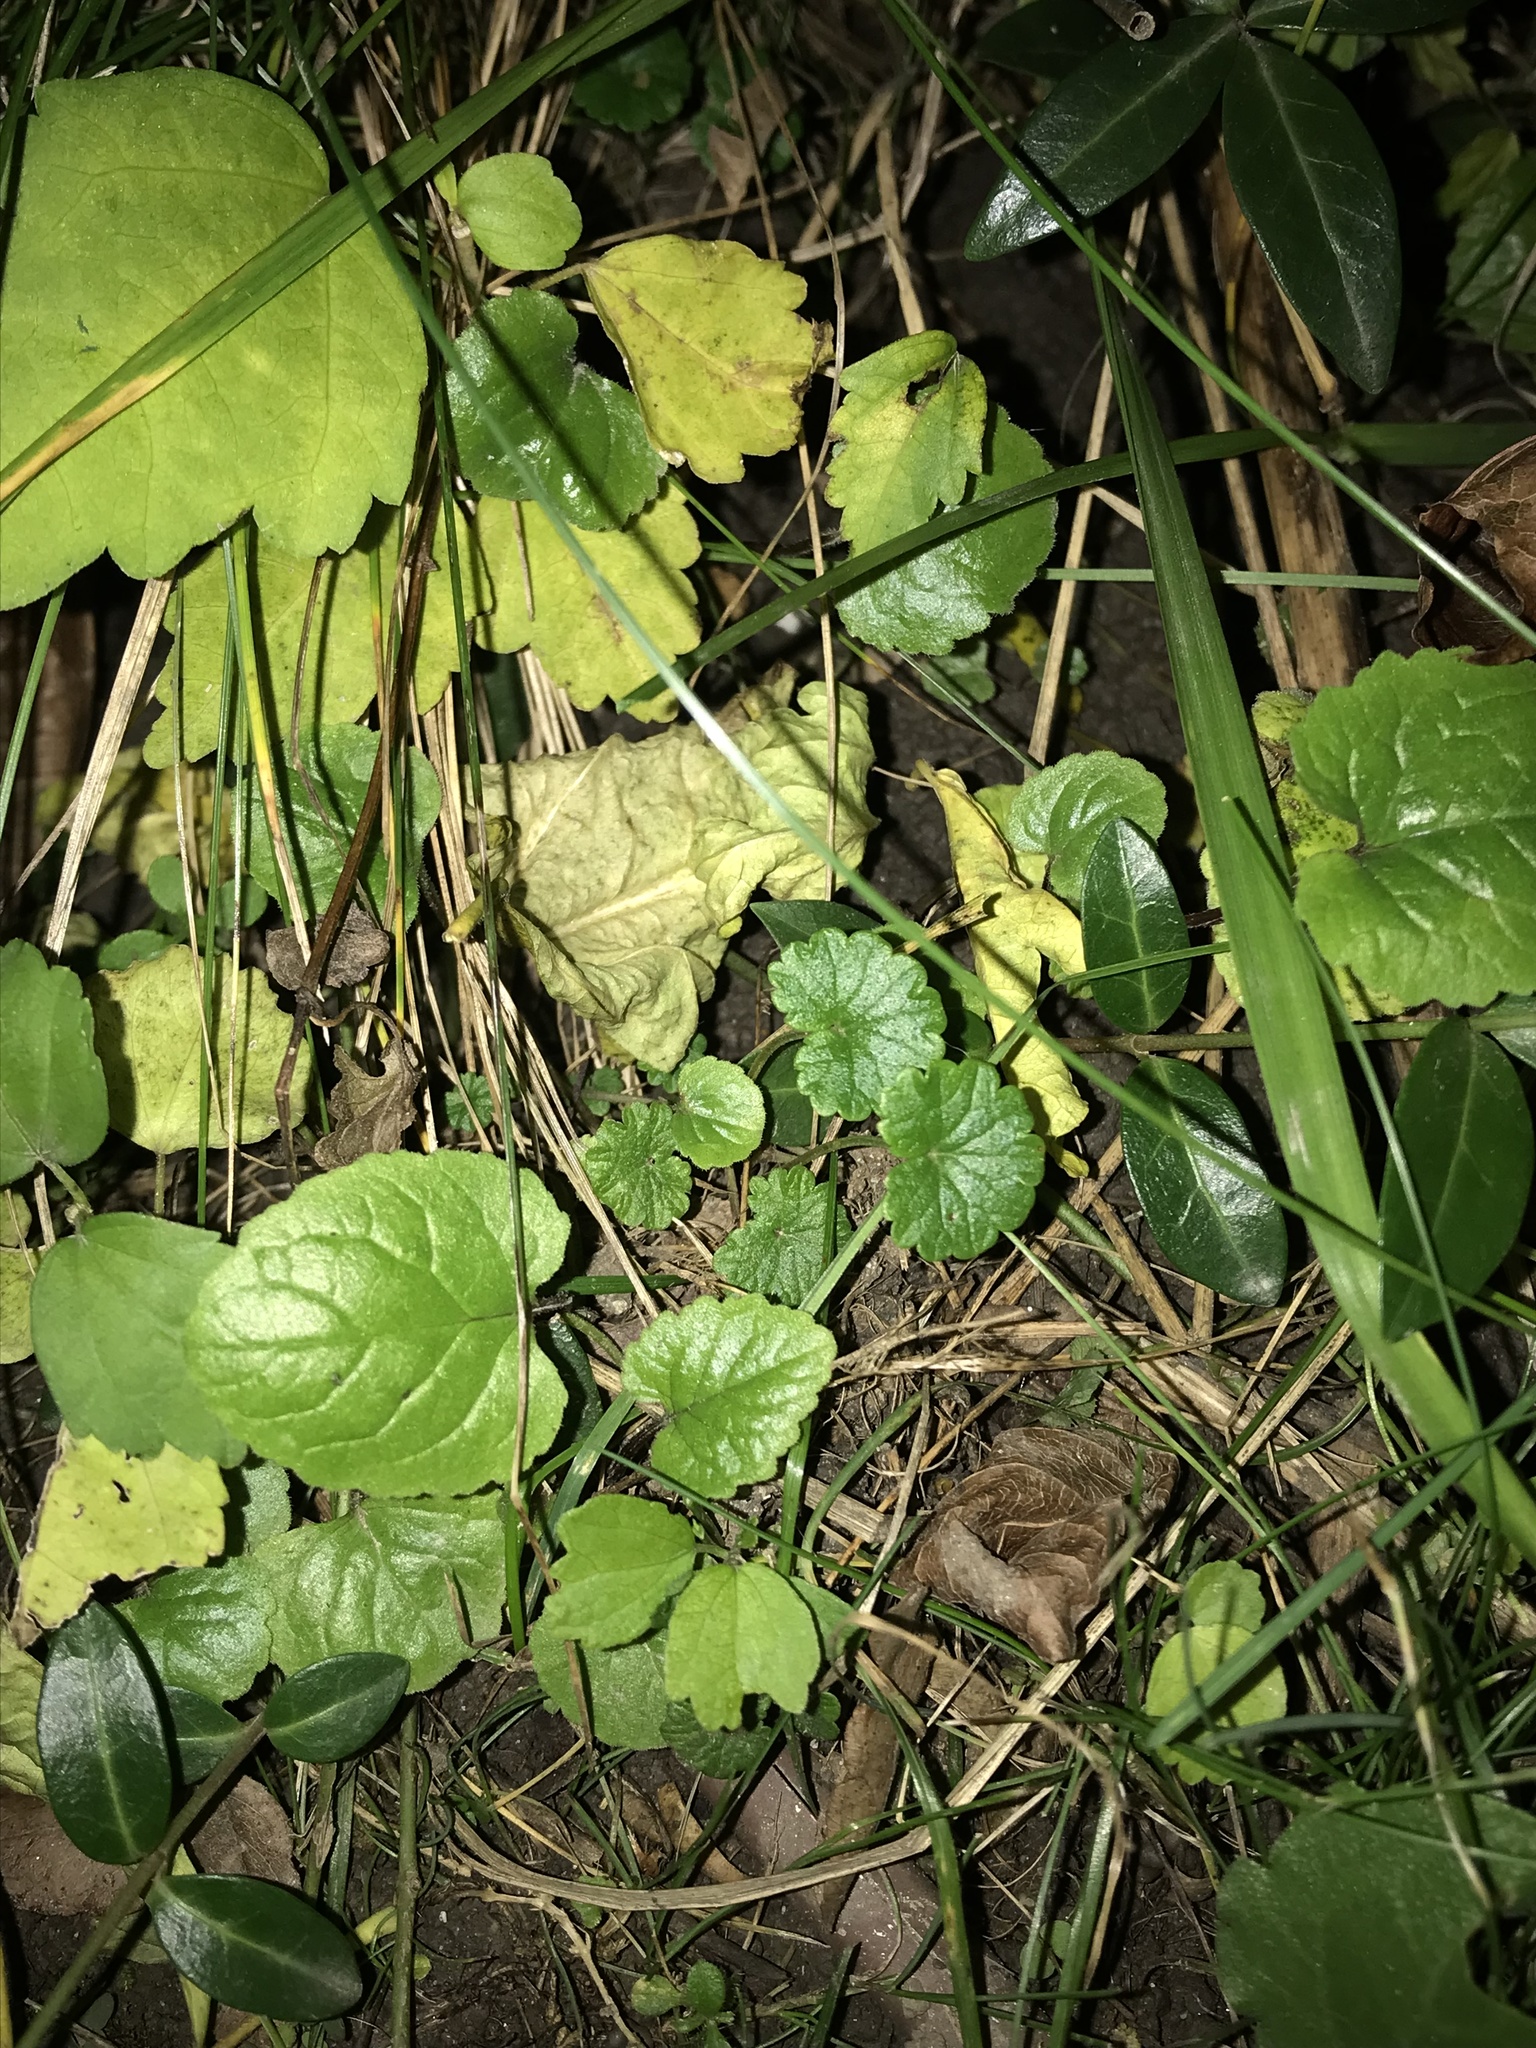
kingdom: Plantae
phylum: Tracheophyta
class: Magnoliopsida
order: Lamiales
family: Lamiaceae
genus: Glechoma
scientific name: Glechoma hederacea
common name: Ground ivy
